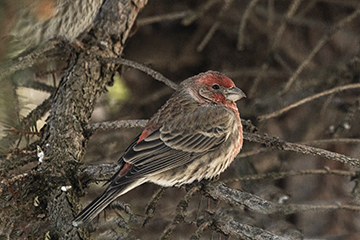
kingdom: Animalia
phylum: Chordata
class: Aves
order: Passeriformes
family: Fringillidae
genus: Haemorhous
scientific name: Haemorhous mexicanus
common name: House finch
